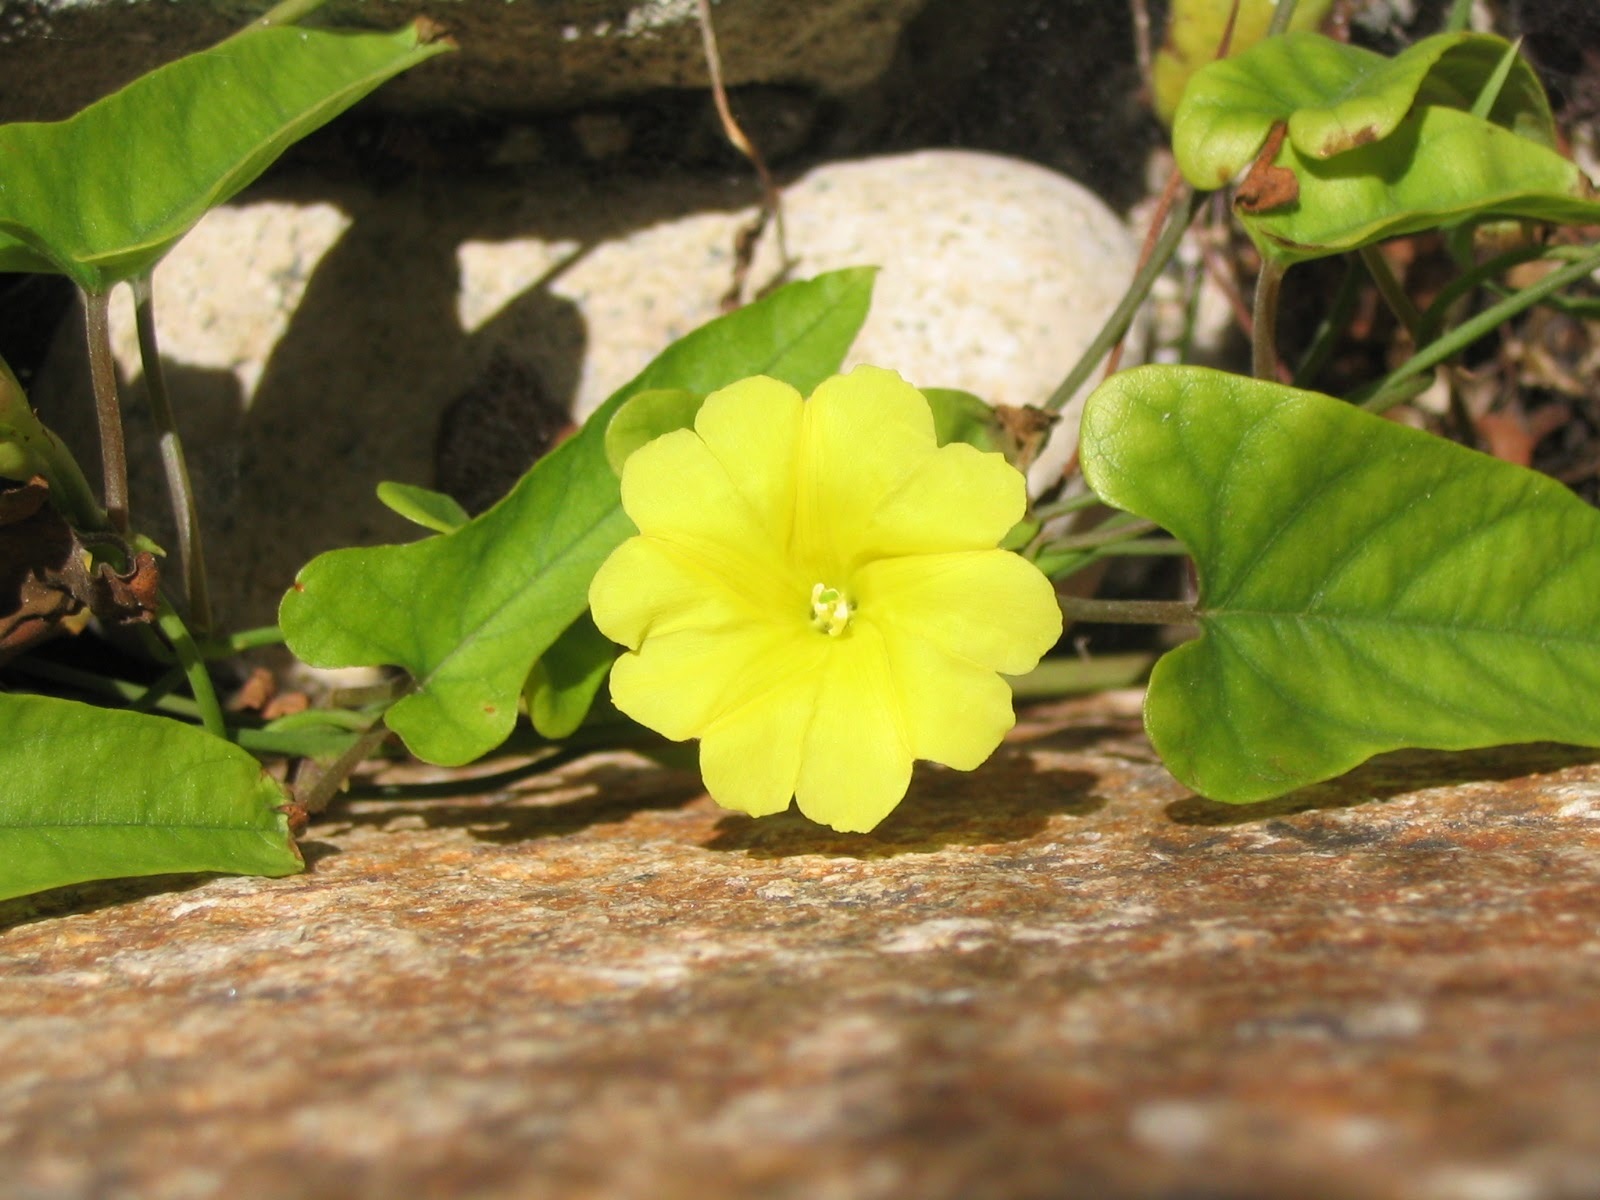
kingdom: Plantae
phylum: Tracheophyta
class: Magnoliopsida
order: Solanales
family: Convolvulaceae
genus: Camonea
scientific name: Camonea umbellata
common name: Hogvine
